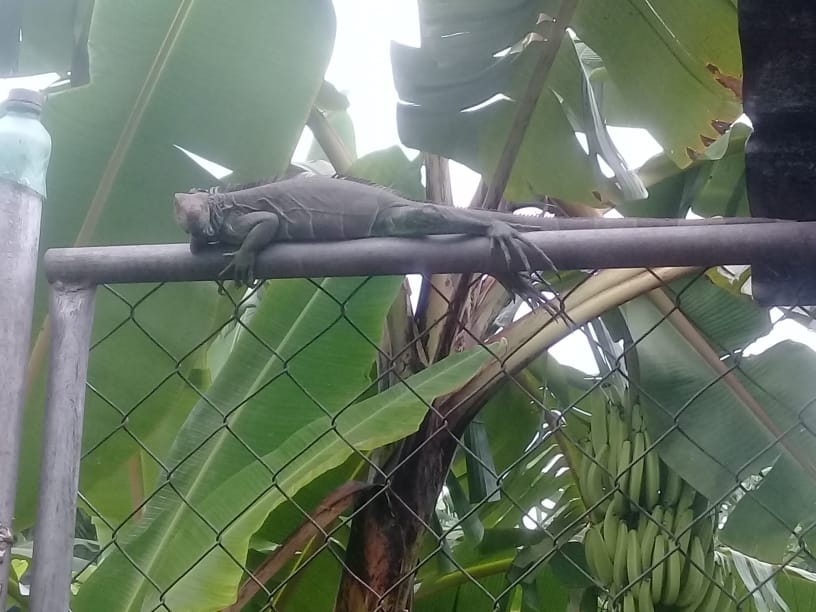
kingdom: Animalia
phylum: Chordata
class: Squamata
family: Iguanidae
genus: Iguana
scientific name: Iguana iguana
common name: Green iguana
